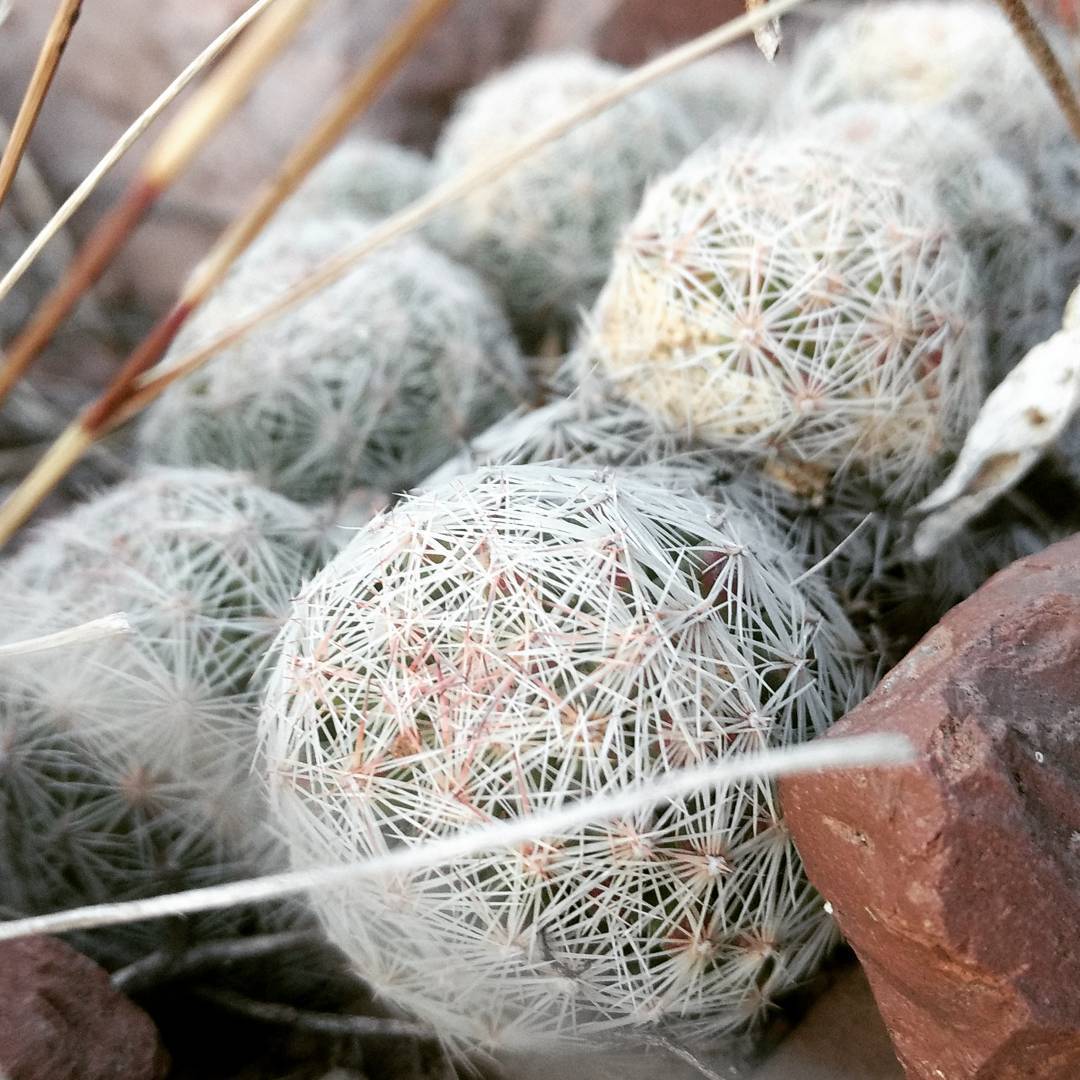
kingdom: Plantae
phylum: Tracheophyta
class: Magnoliopsida
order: Caryophyllales
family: Cactaceae
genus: Mammillaria
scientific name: Mammillaria lasiacantha
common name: Lace-spine nipple cactus
